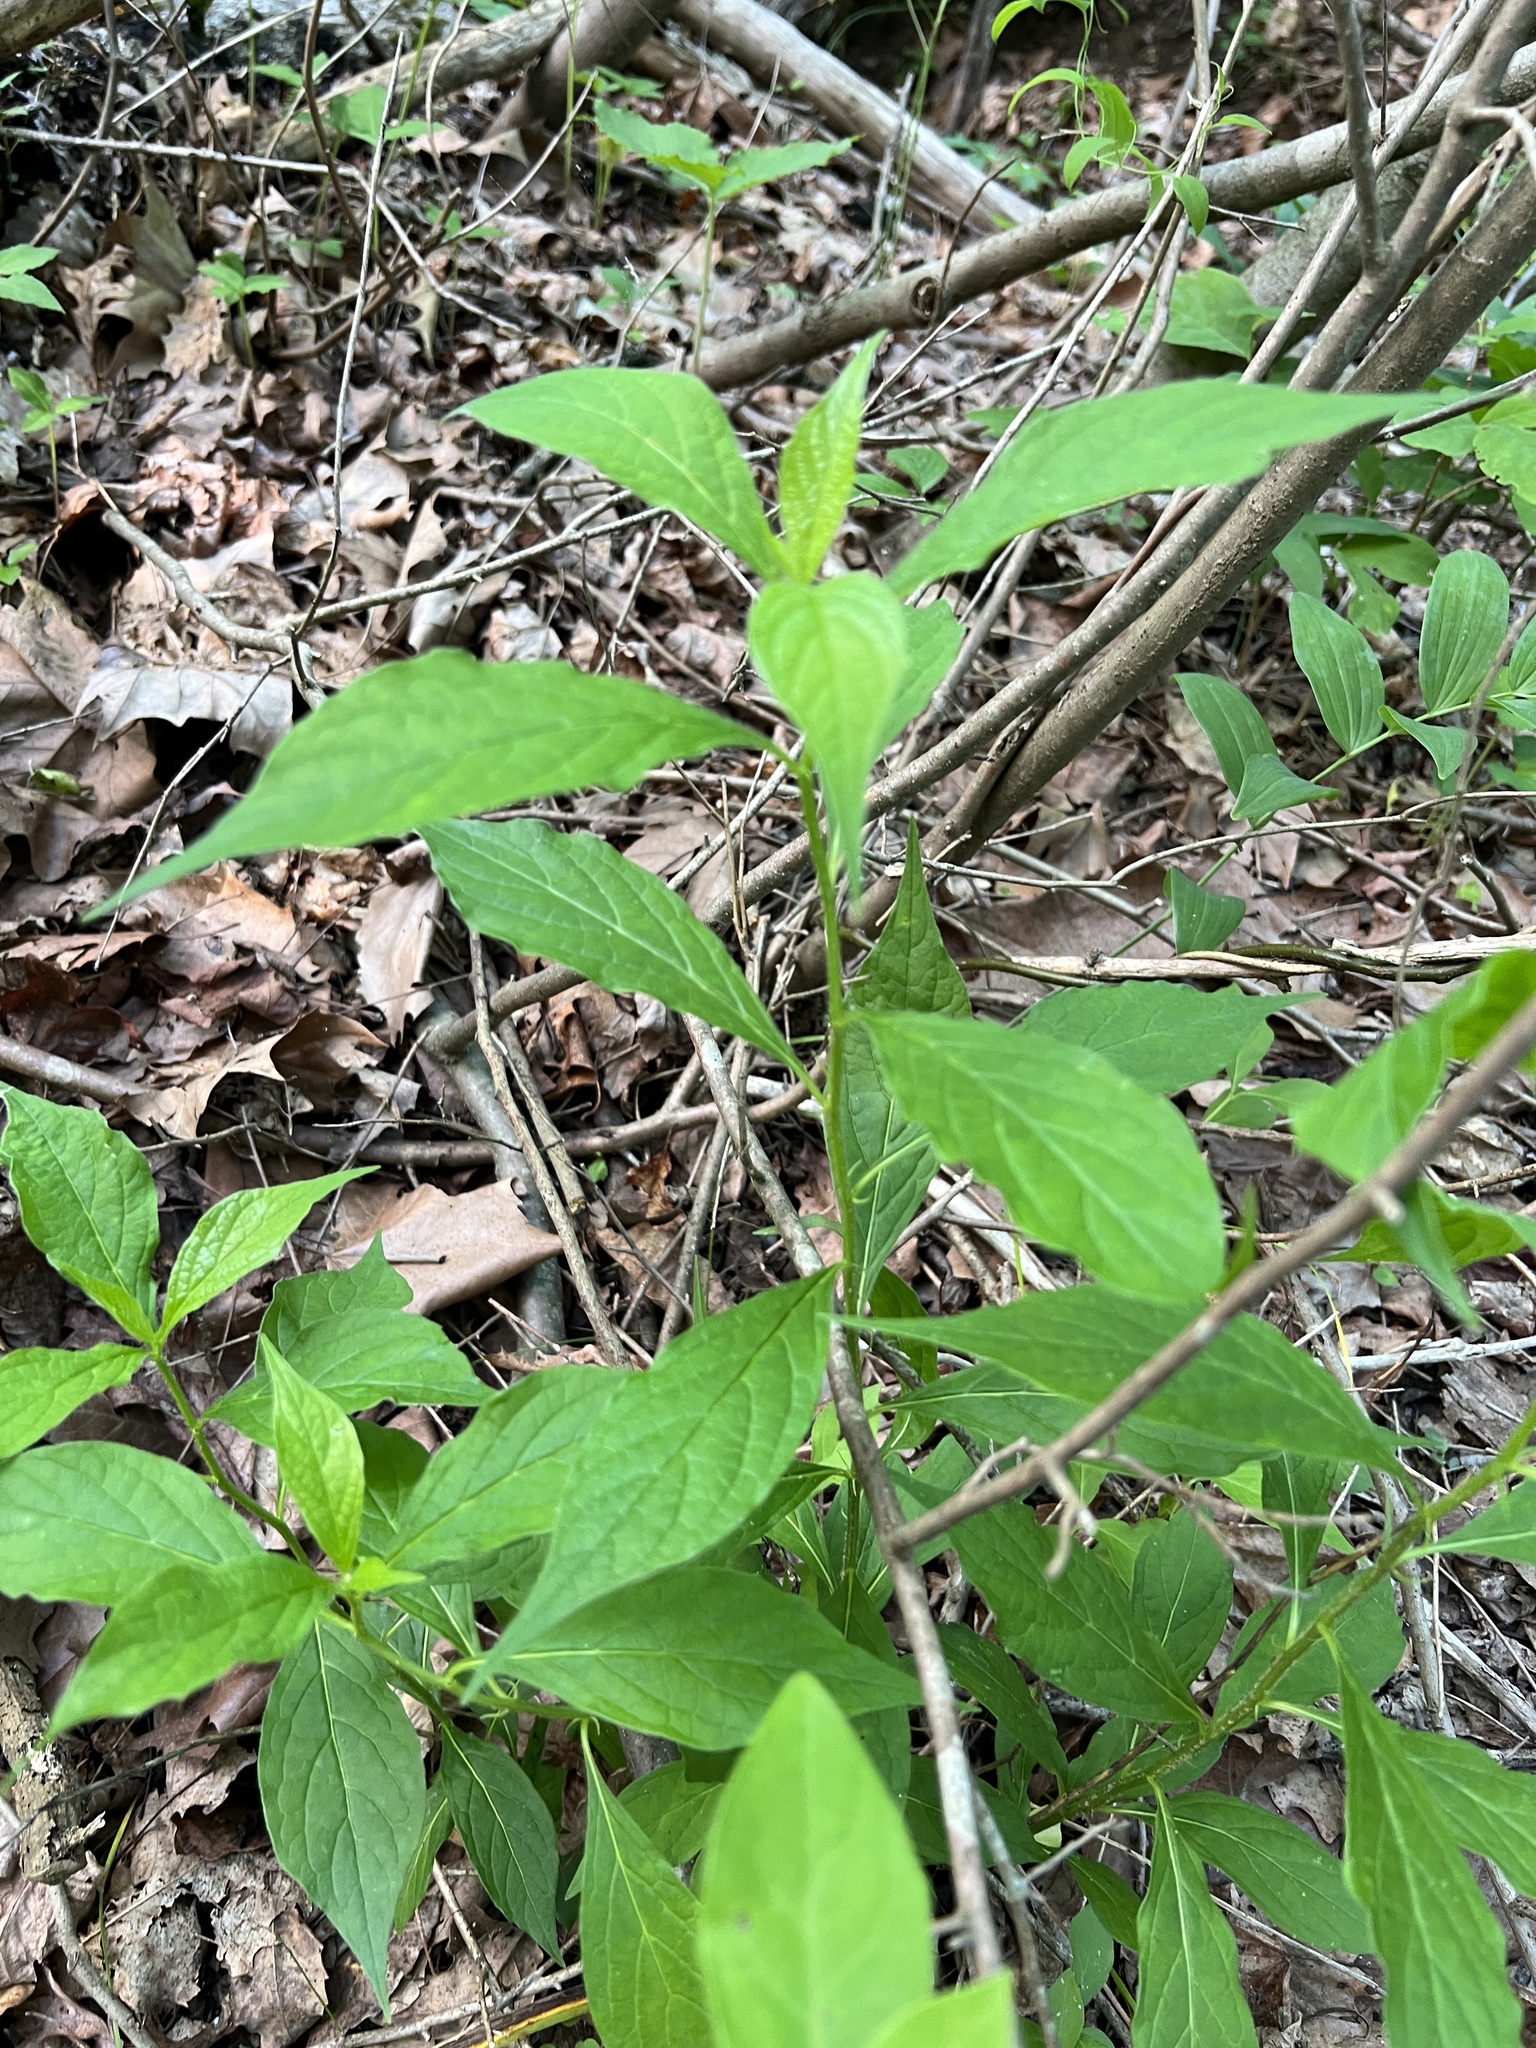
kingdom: Plantae
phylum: Tracheophyta
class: Magnoliopsida
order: Malpighiales
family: Violaceae
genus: Cubelium
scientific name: Cubelium concolor
